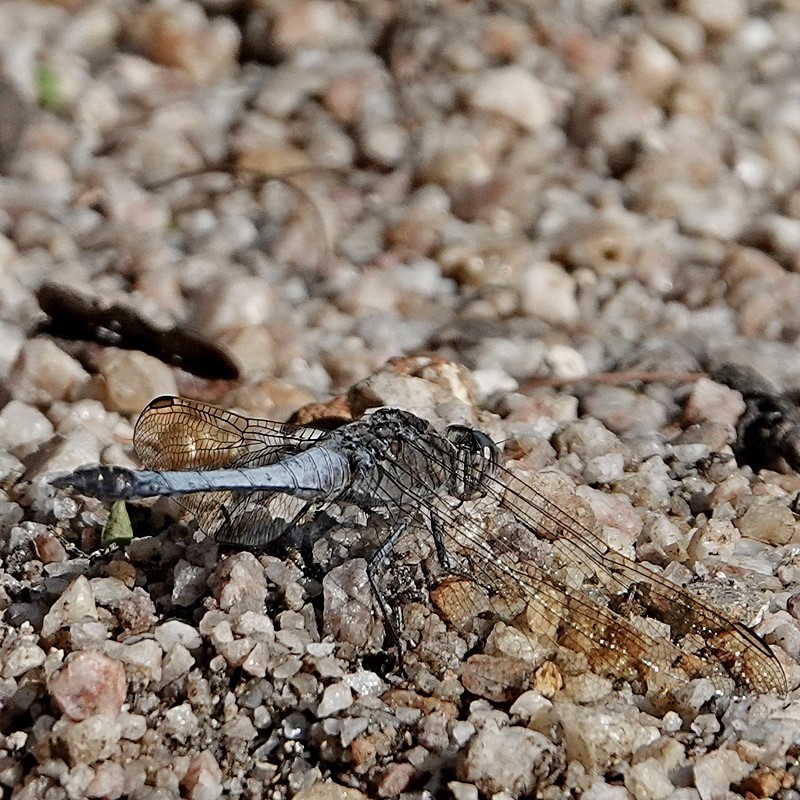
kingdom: Animalia
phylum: Arthropoda
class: Insecta
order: Odonata
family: Libellulidae
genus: Orthetrum
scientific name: Orthetrum caledonicum
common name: Blue skimmer
